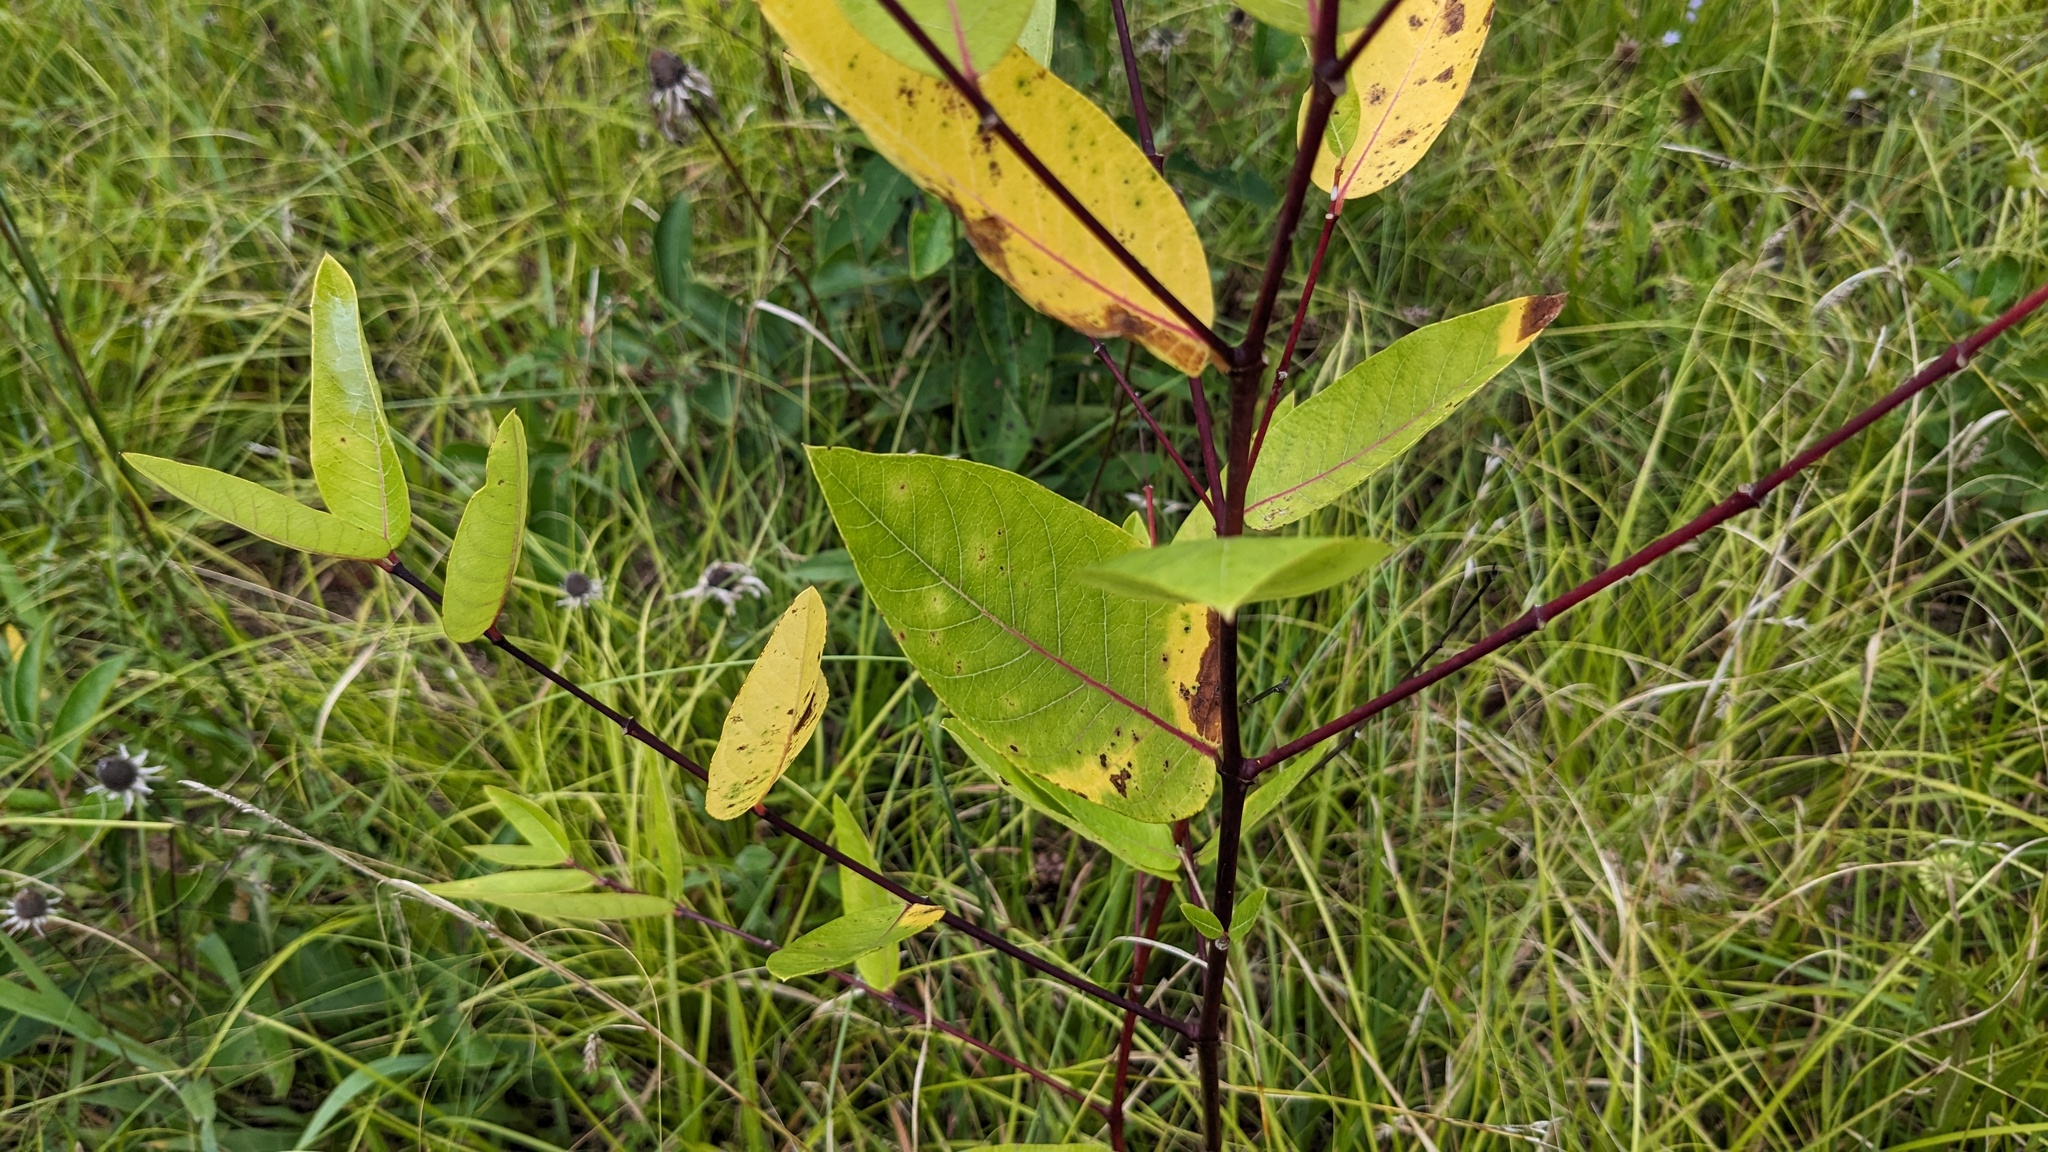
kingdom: Plantae
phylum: Tracheophyta
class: Magnoliopsida
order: Gentianales
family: Apocynaceae
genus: Apocynum
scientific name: Apocynum cannabinum
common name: Hemp dogbane
